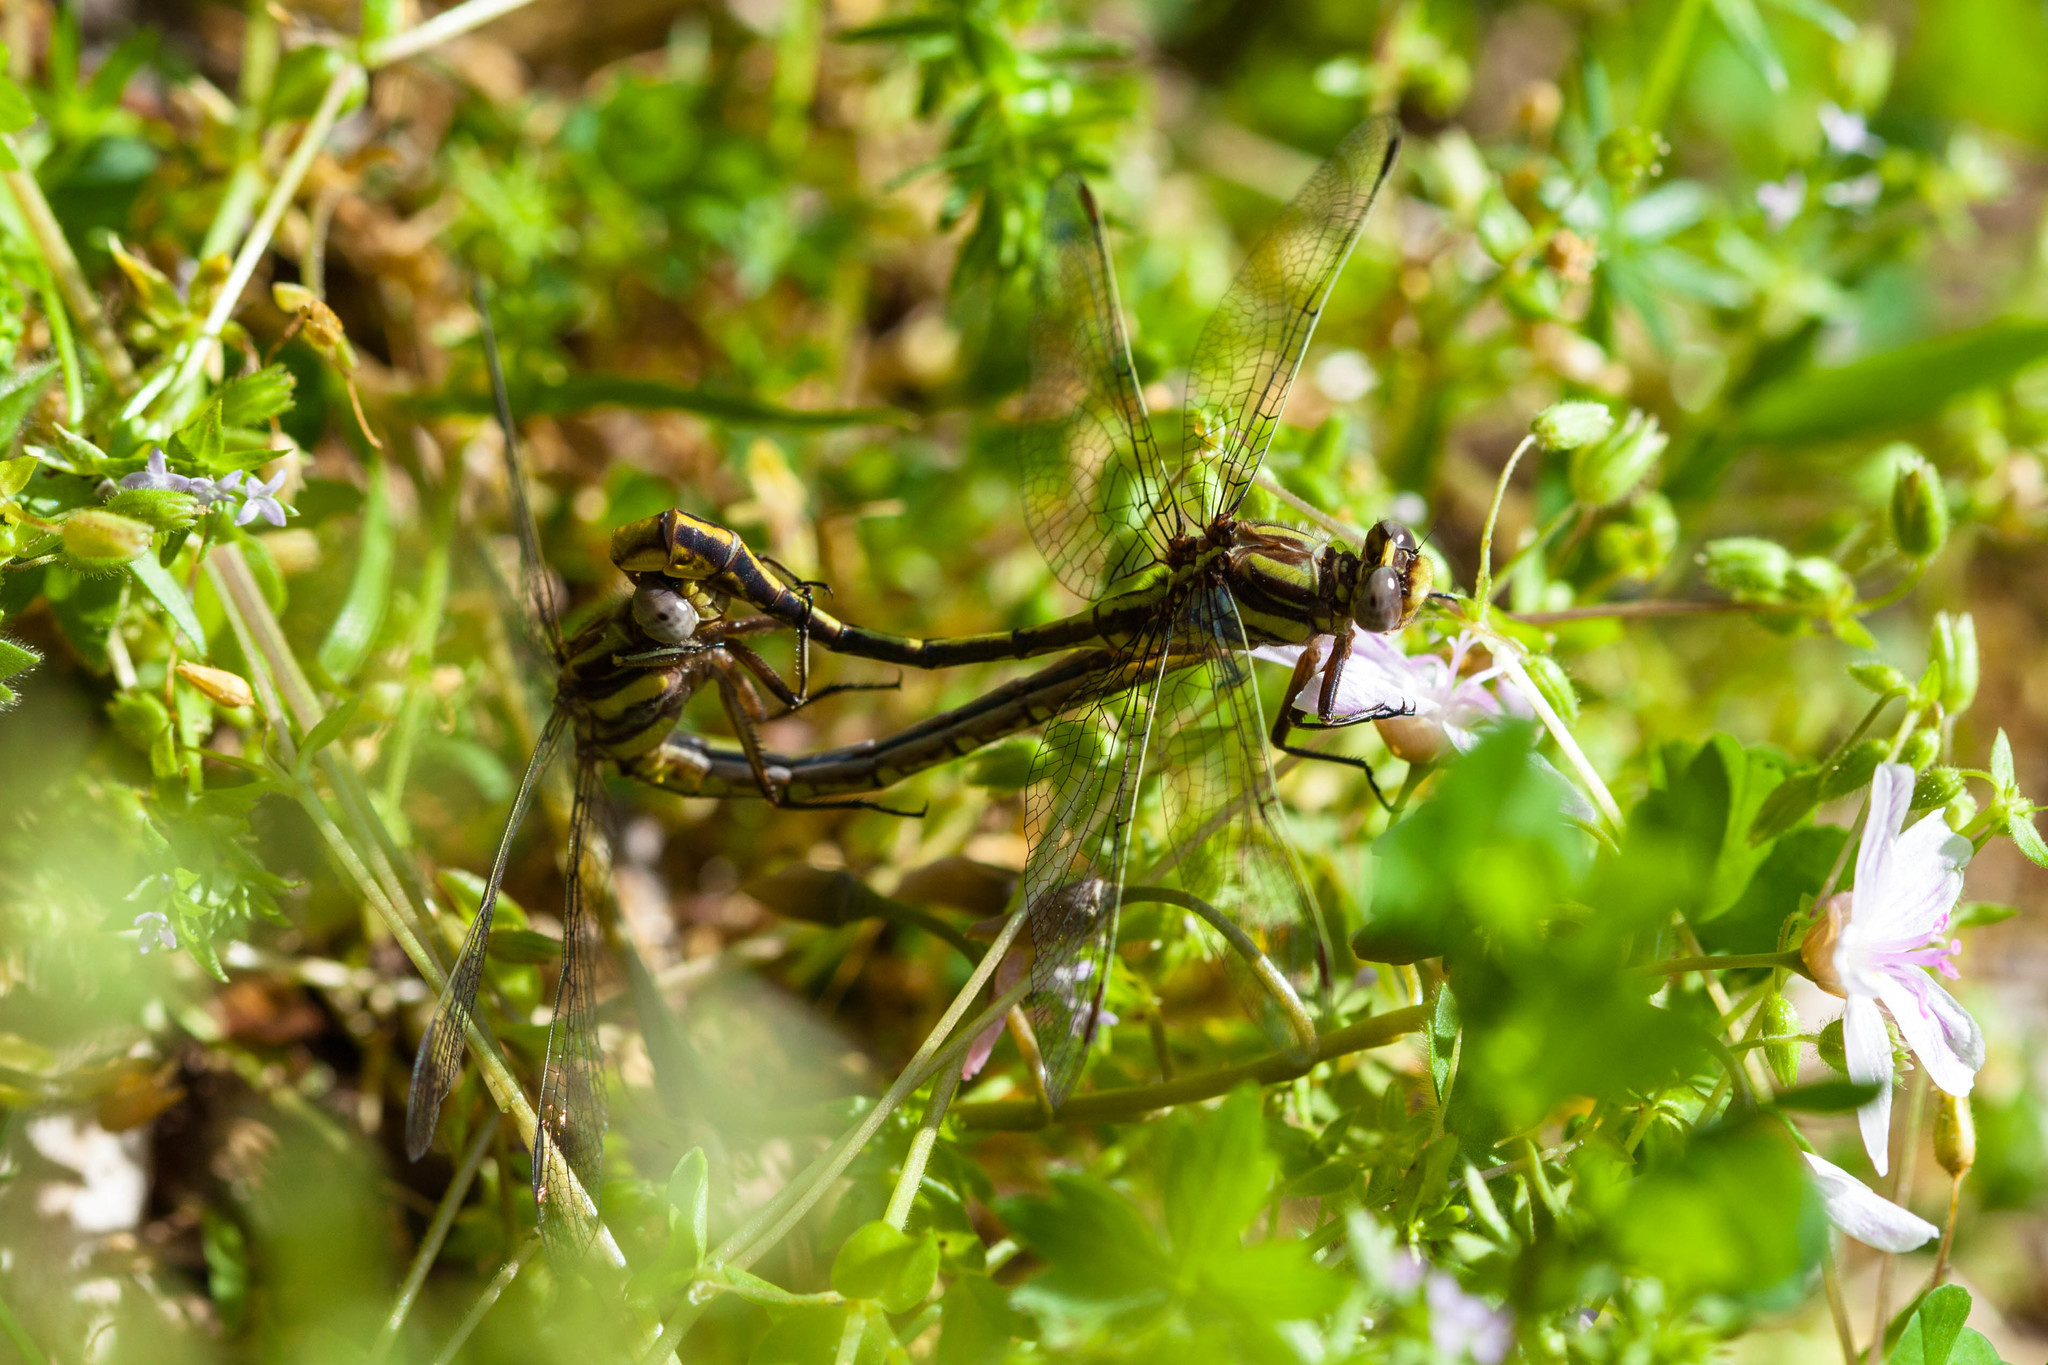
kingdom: Animalia
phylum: Arthropoda
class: Insecta
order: Odonata
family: Gomphidae
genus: Phanogomphus
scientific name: Phanogomphus exilis
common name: Lancet clubtail
